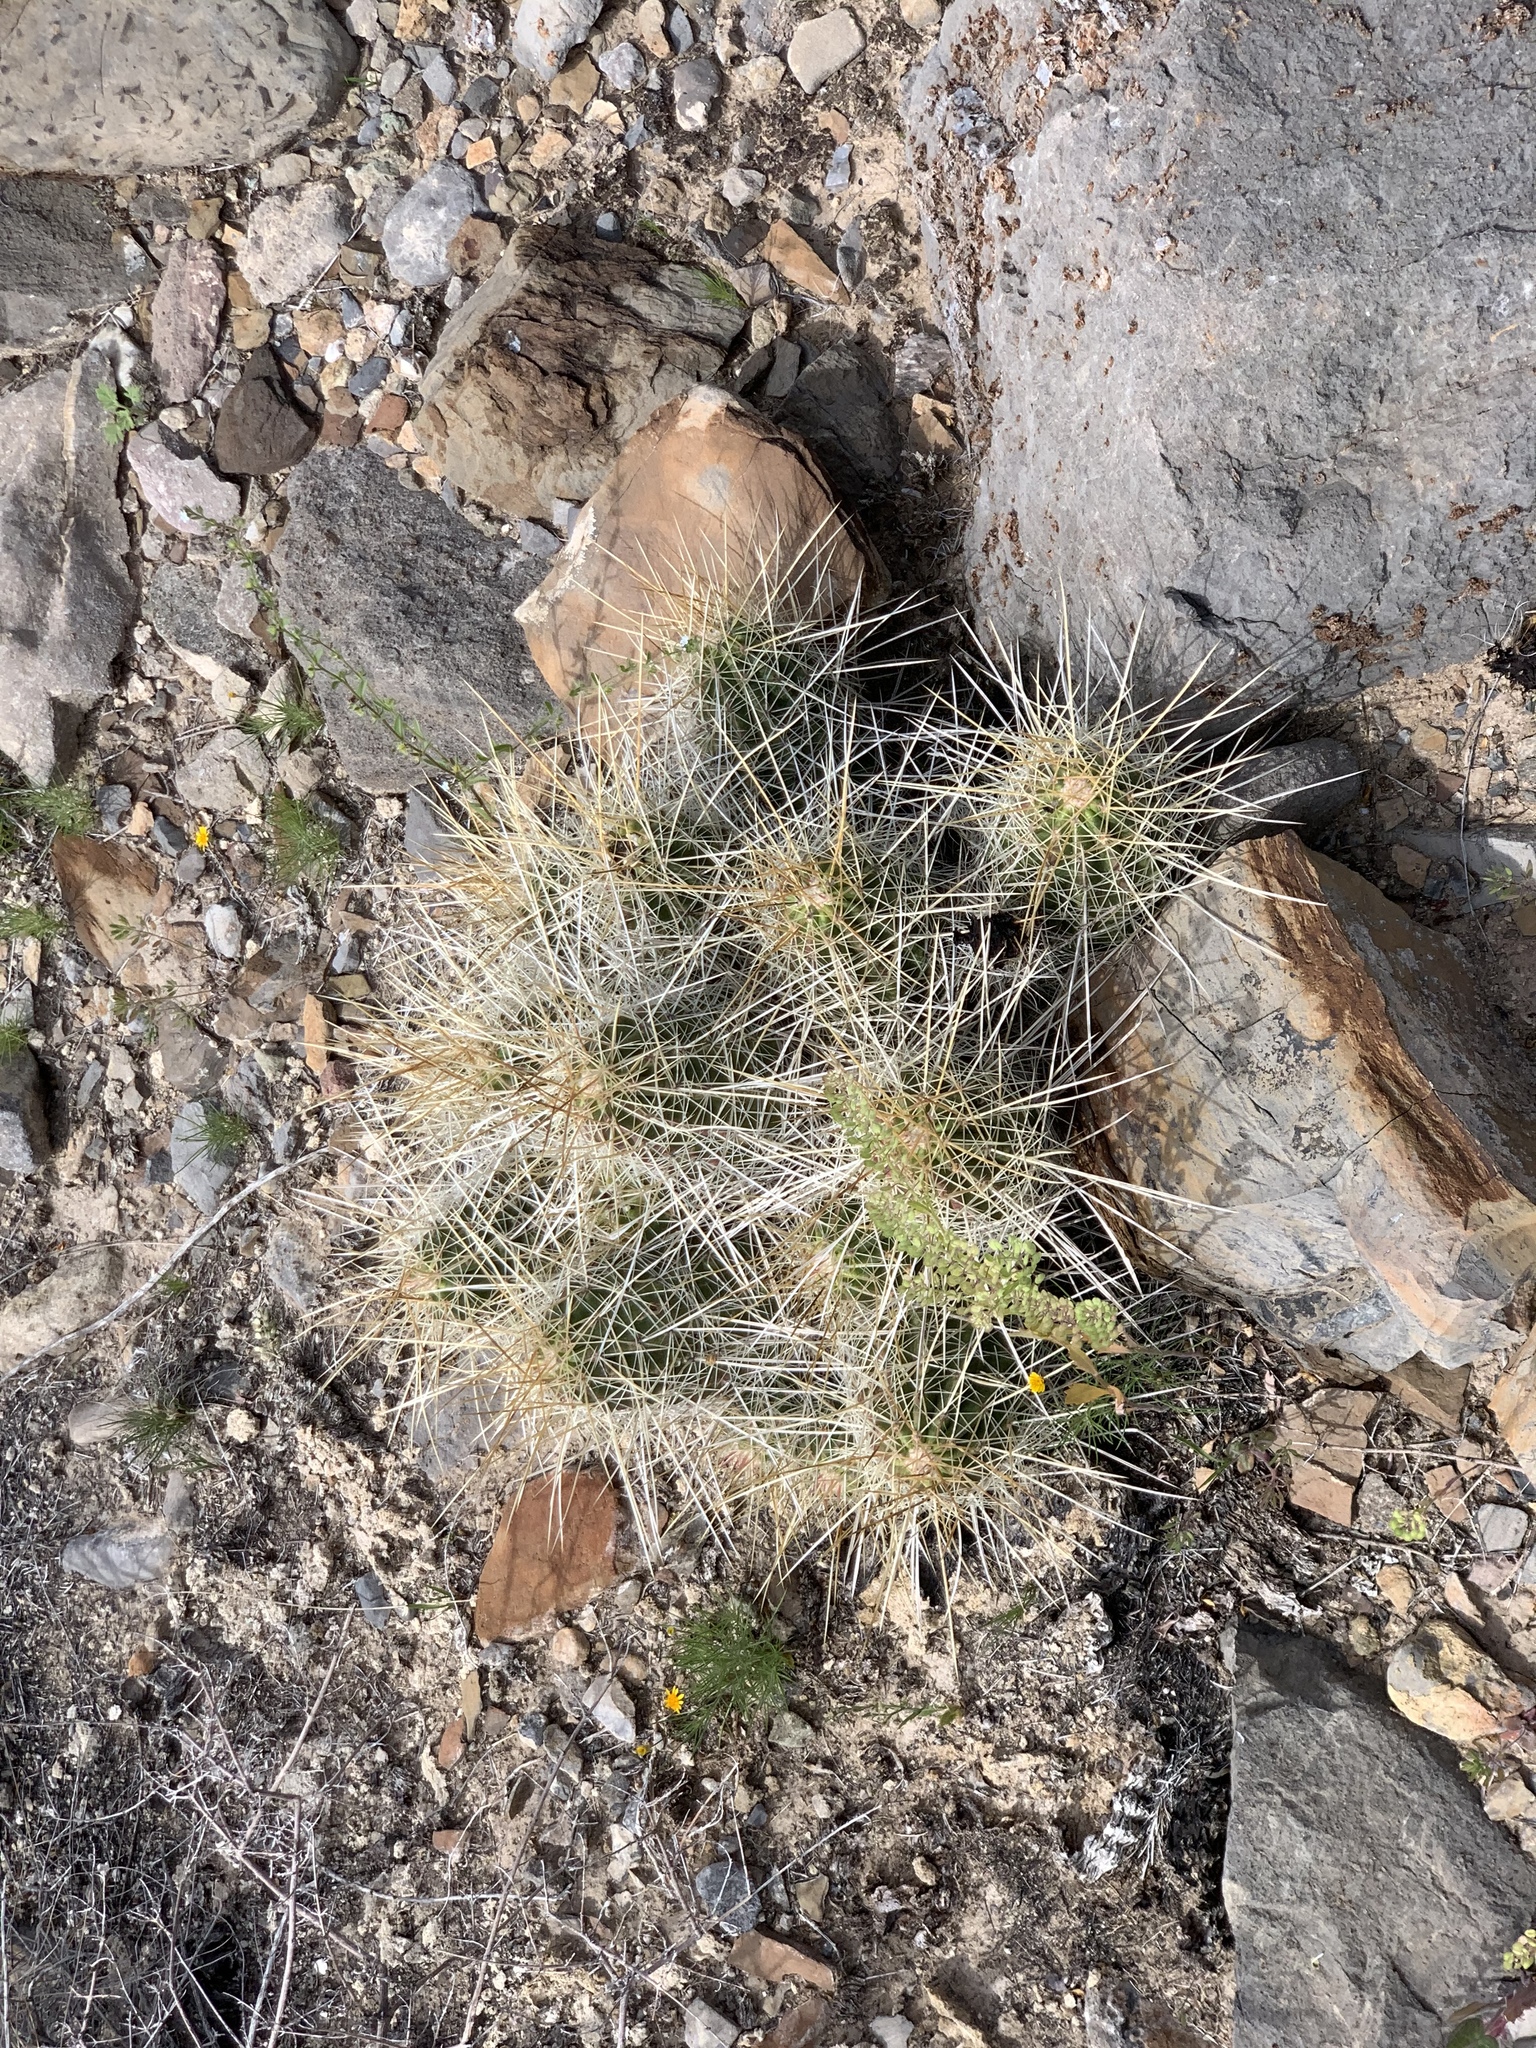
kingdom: Plantae
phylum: Tracheophyta
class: Magnoliopsida
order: Caryophyllales
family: Cactaceae
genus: Echinocereus
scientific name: Echinocereus stramineus
